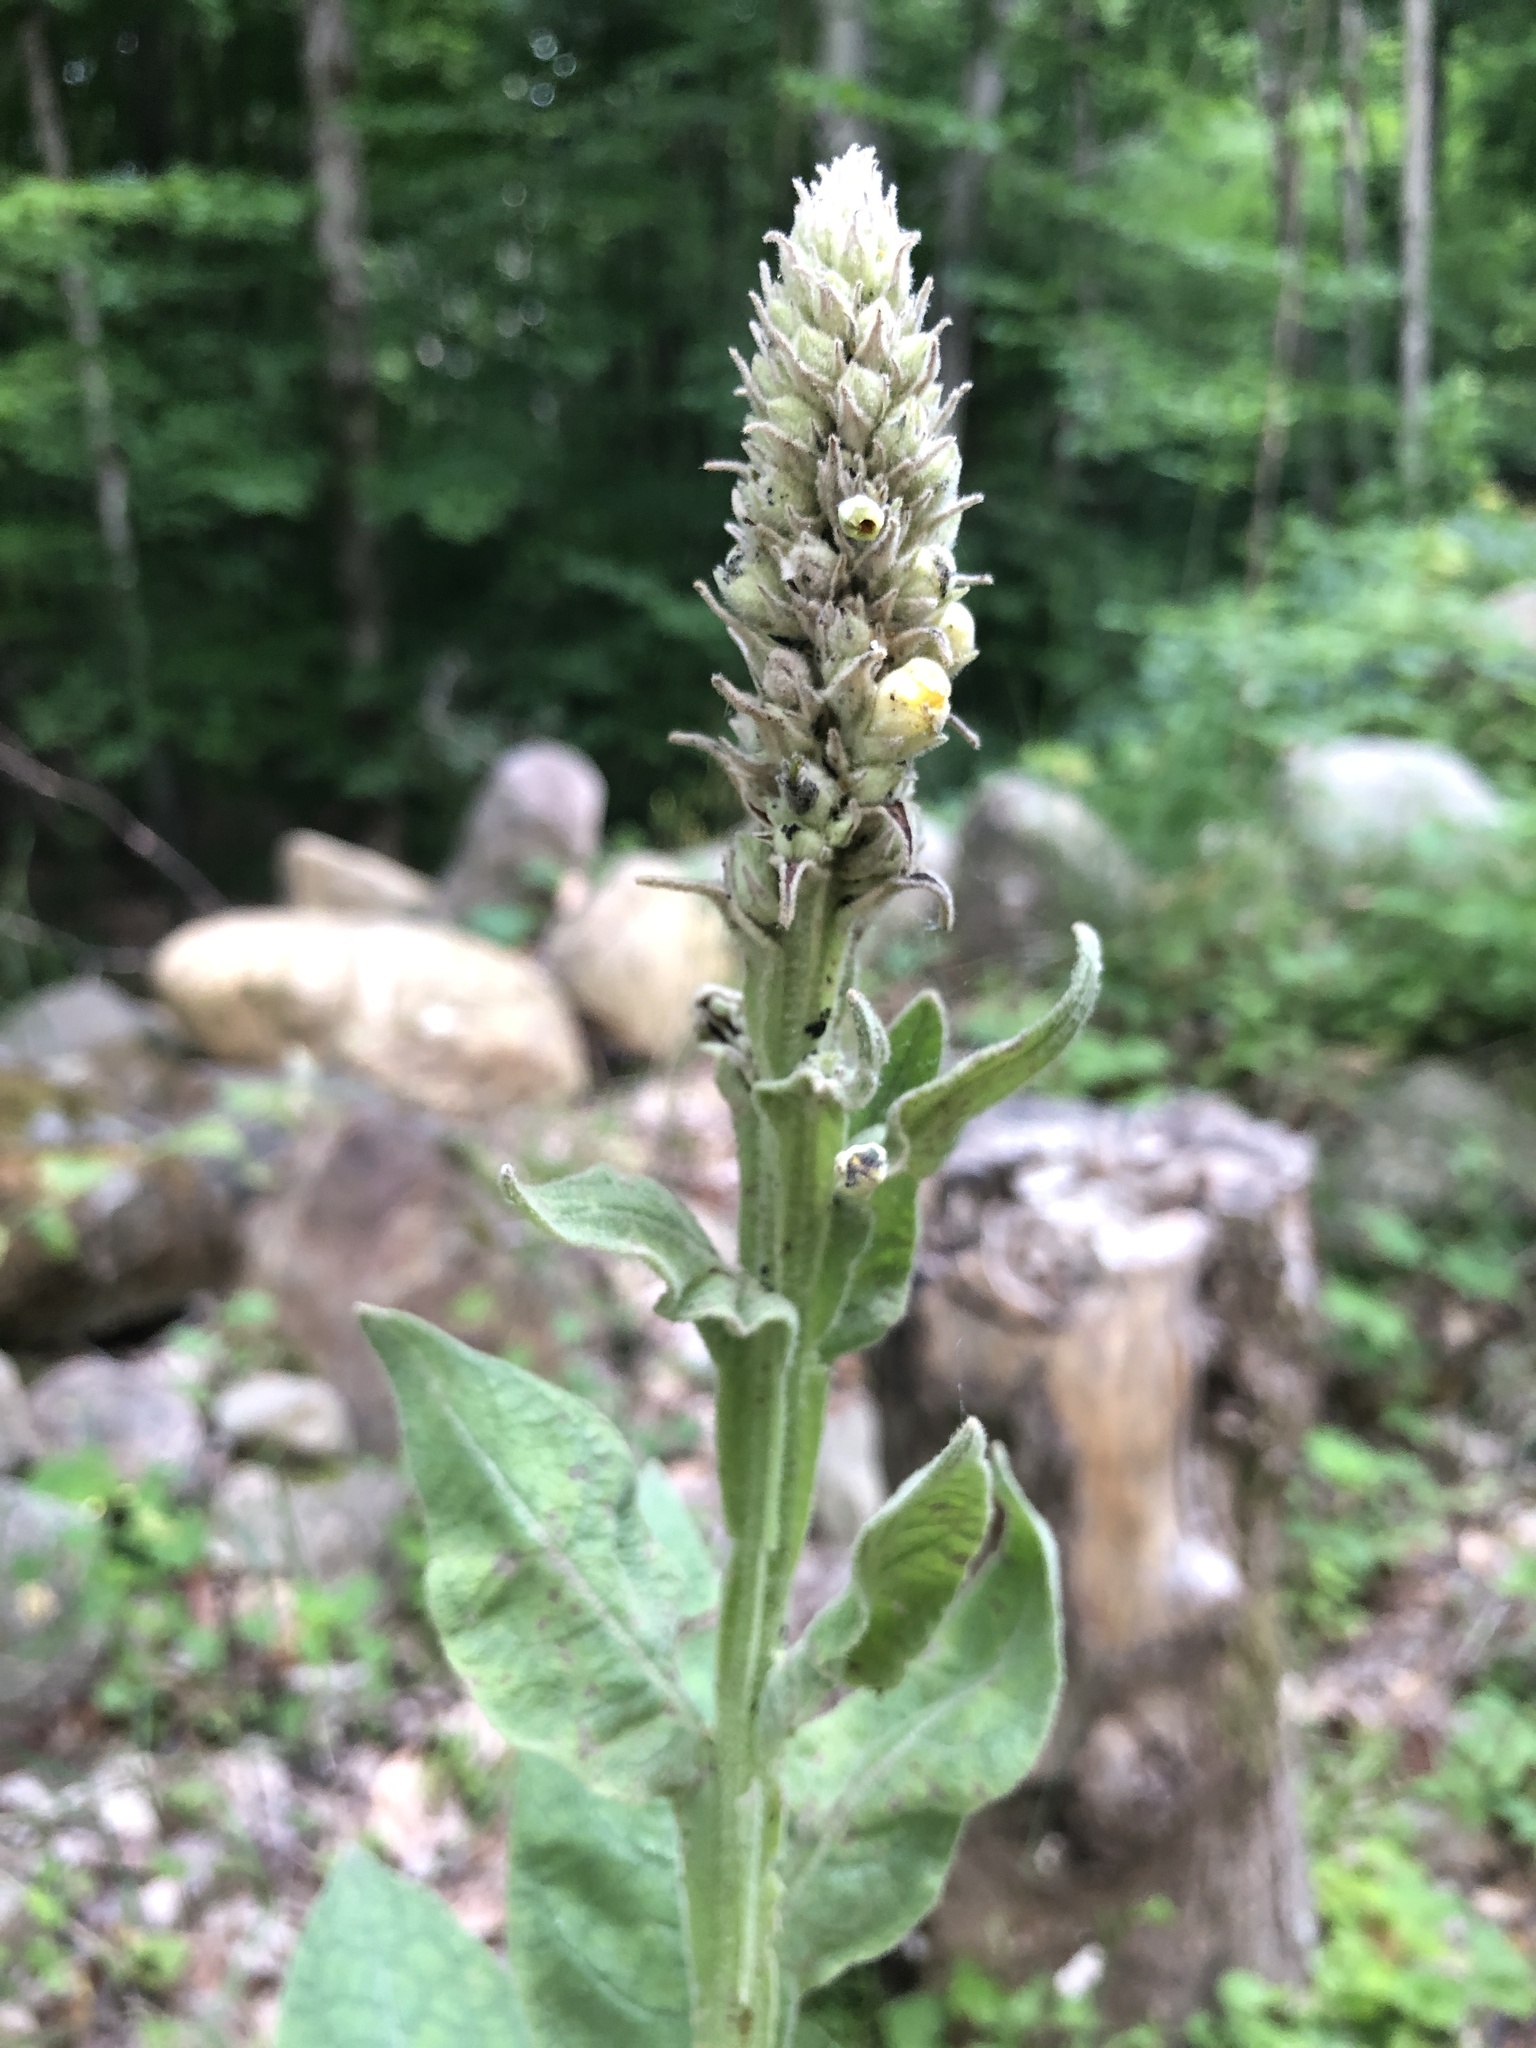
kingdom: Plantae
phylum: Tracheophyta
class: Magnoliopsida
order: Lamiales
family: Scrophulariaceae
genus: Verbascum
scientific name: Verbascum thapsus
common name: Common mullein
